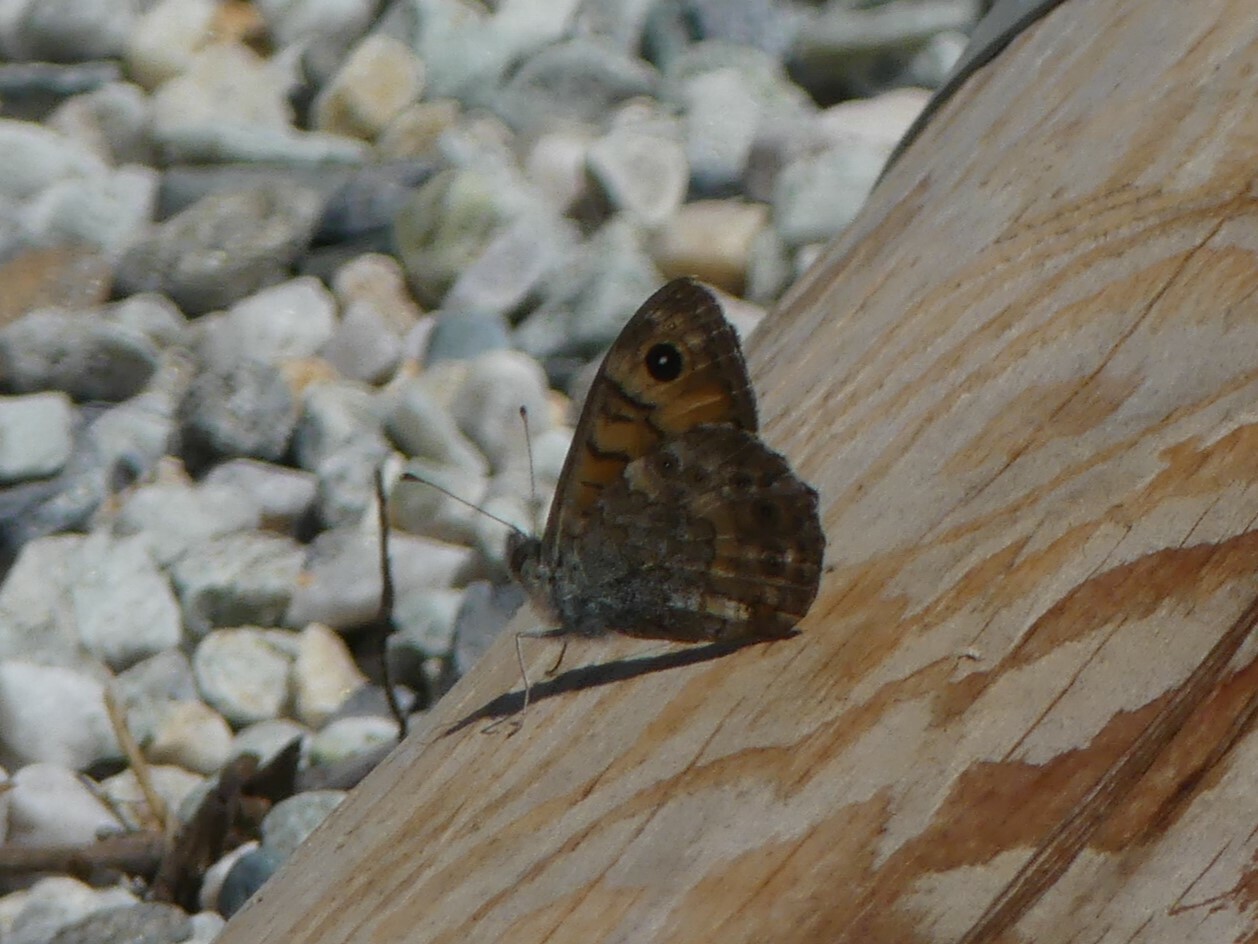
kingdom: Animalia
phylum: Arthropoda
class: Insecta
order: Lepidoptera
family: Nymphalidae
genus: Pararge
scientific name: Pararge Lasiommata megera
